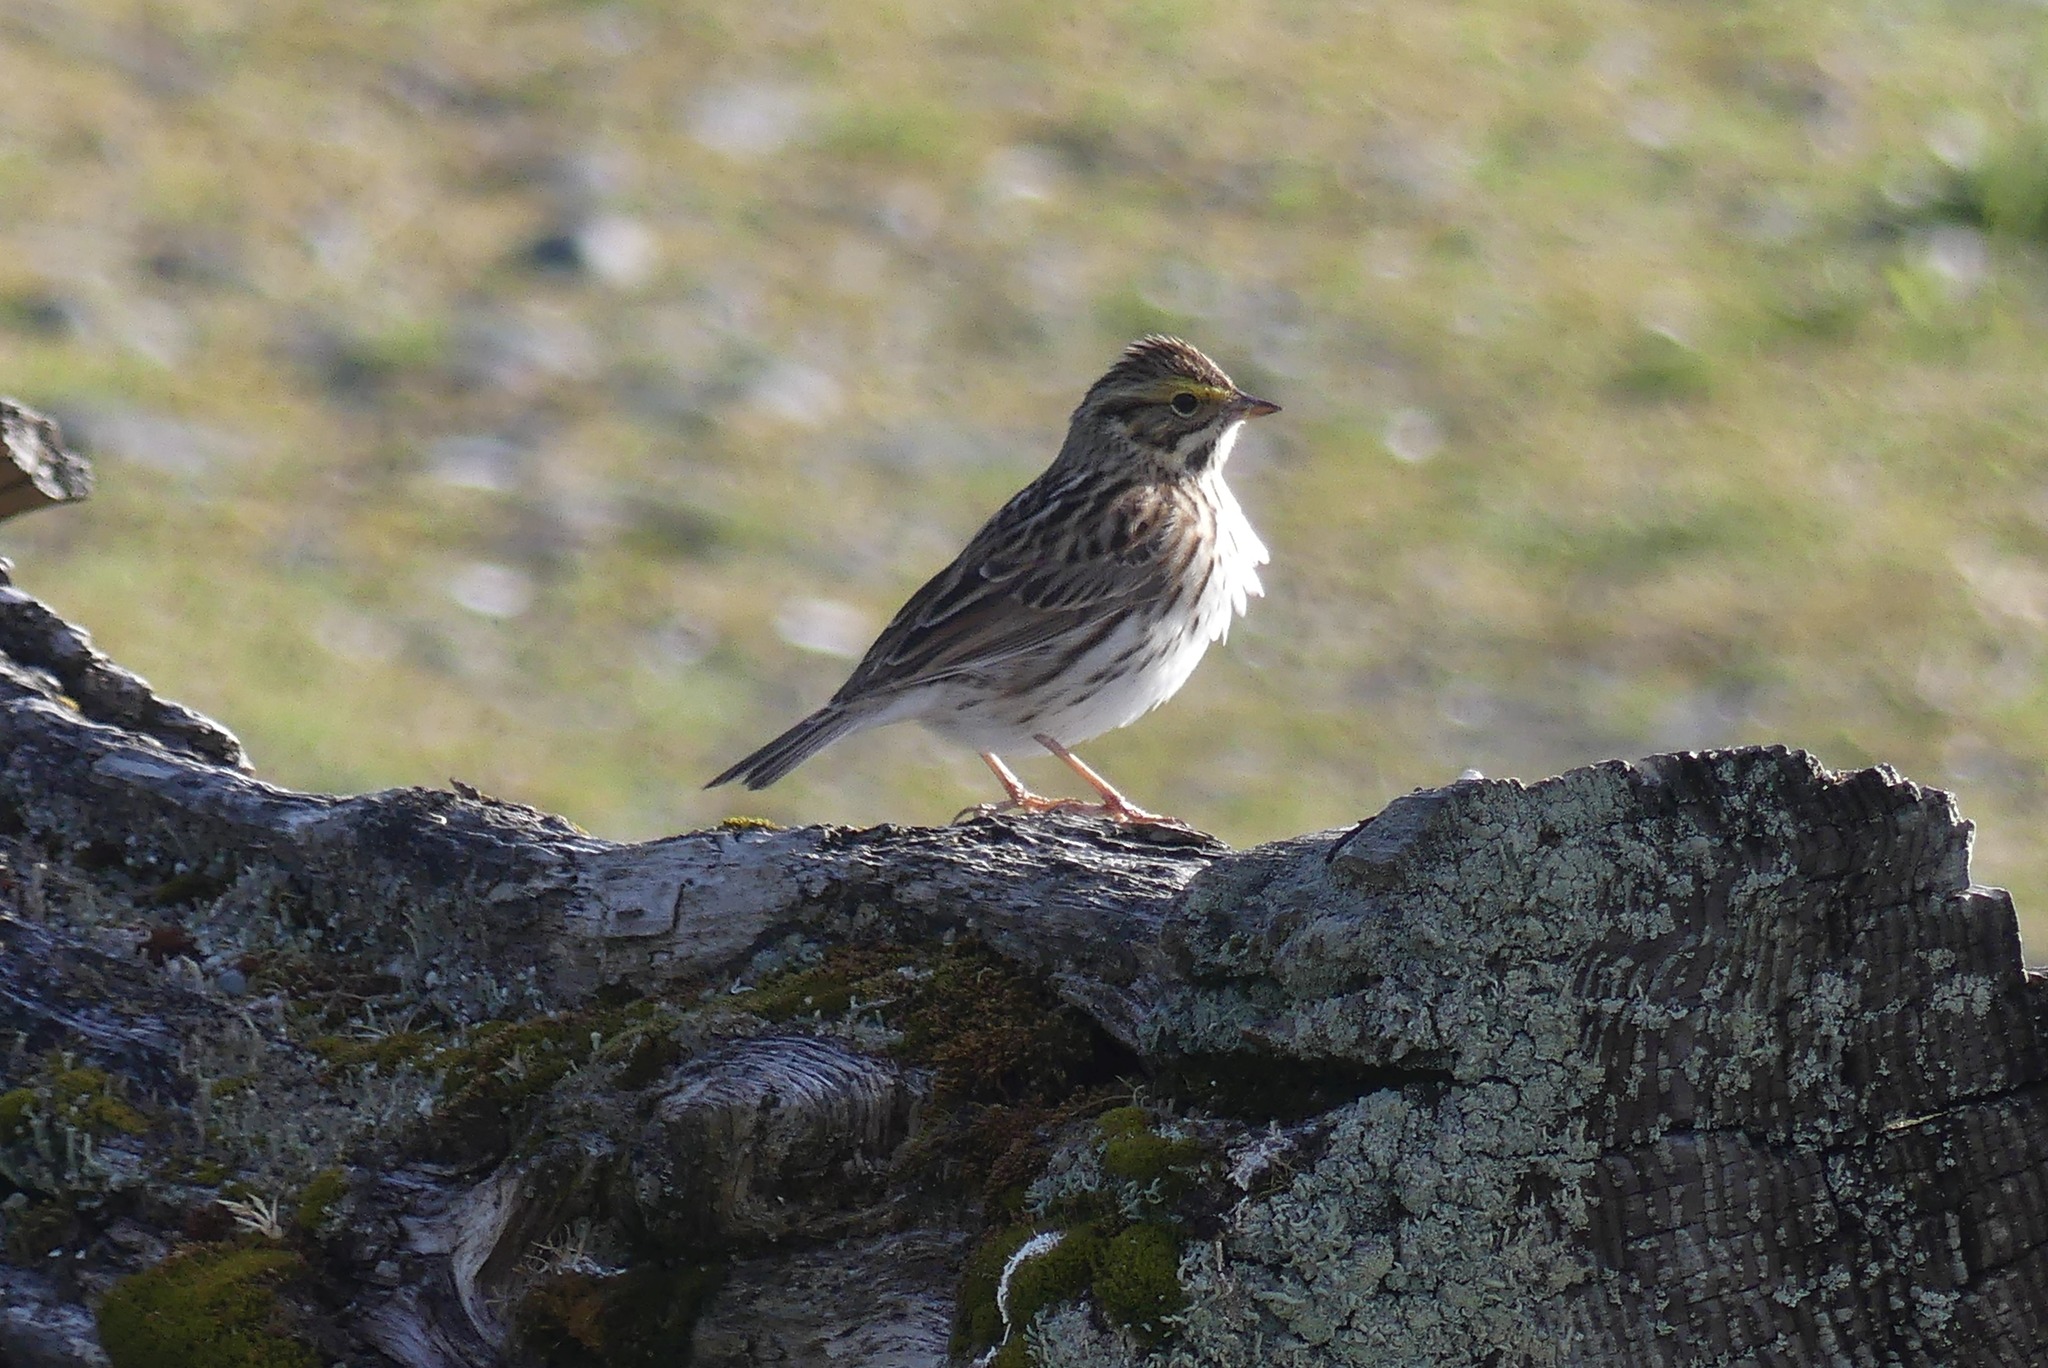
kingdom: Animalia
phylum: Chordata
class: Aves
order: Passeriformes
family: Passerellidae
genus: Passerculus
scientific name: Passerculus sandwichensis
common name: Savannah sparrow
